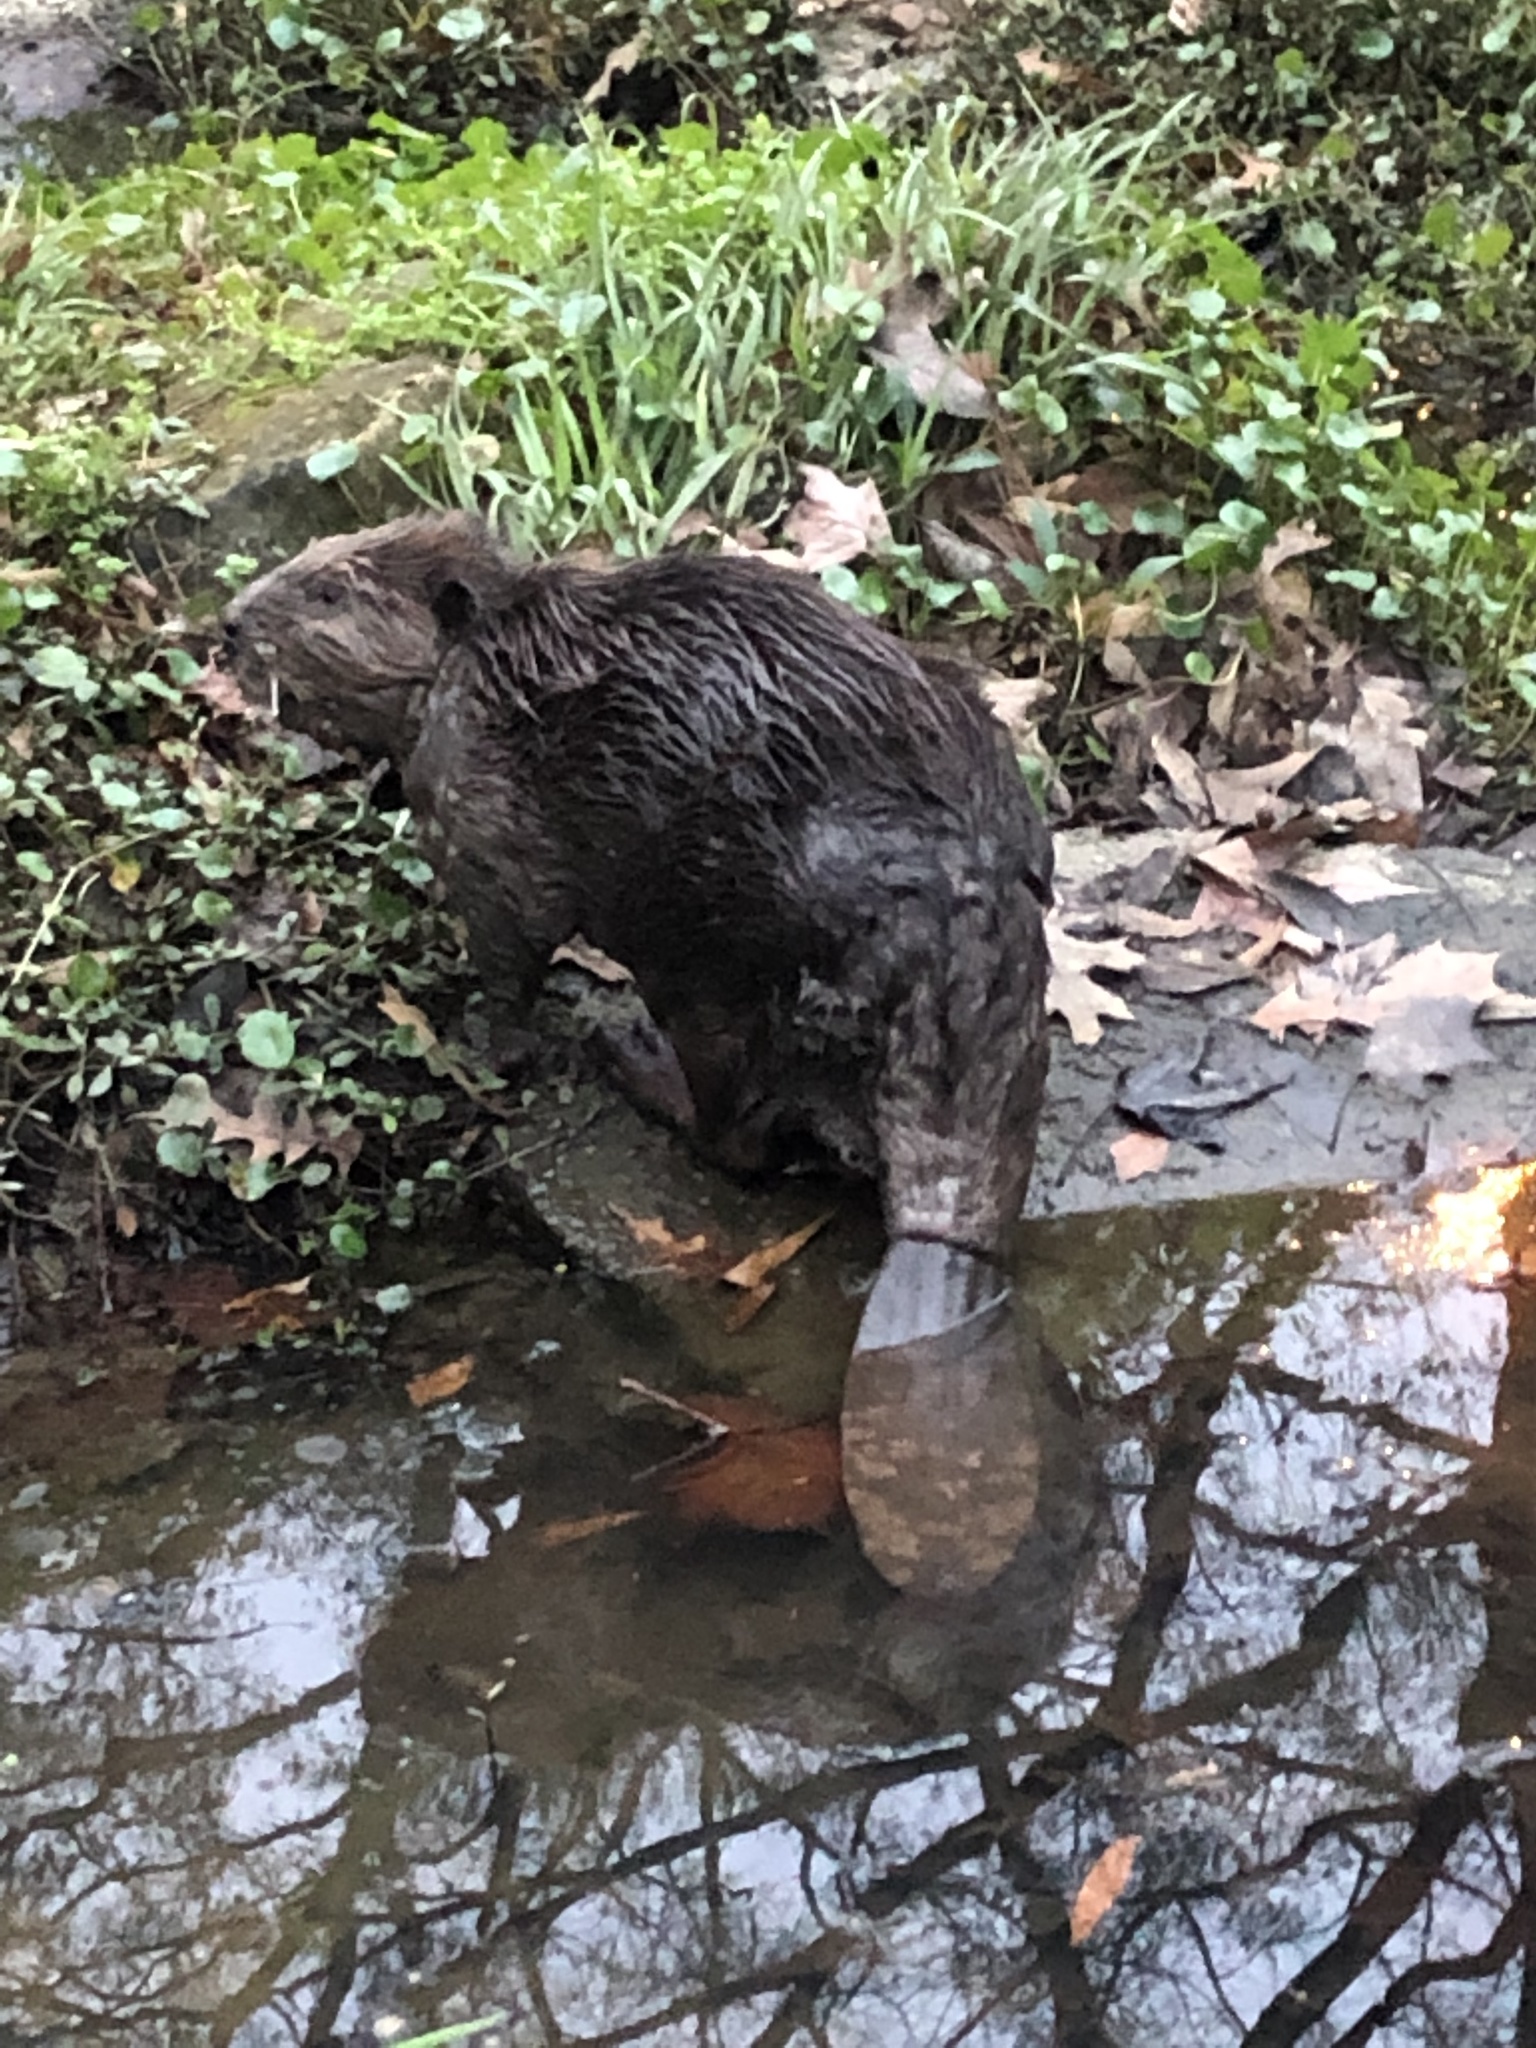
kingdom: Animalia
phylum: Chordata
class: Mammalia
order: Rodentia
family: Castoridae
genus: Castor
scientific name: Castor canadensis
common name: American beaver
